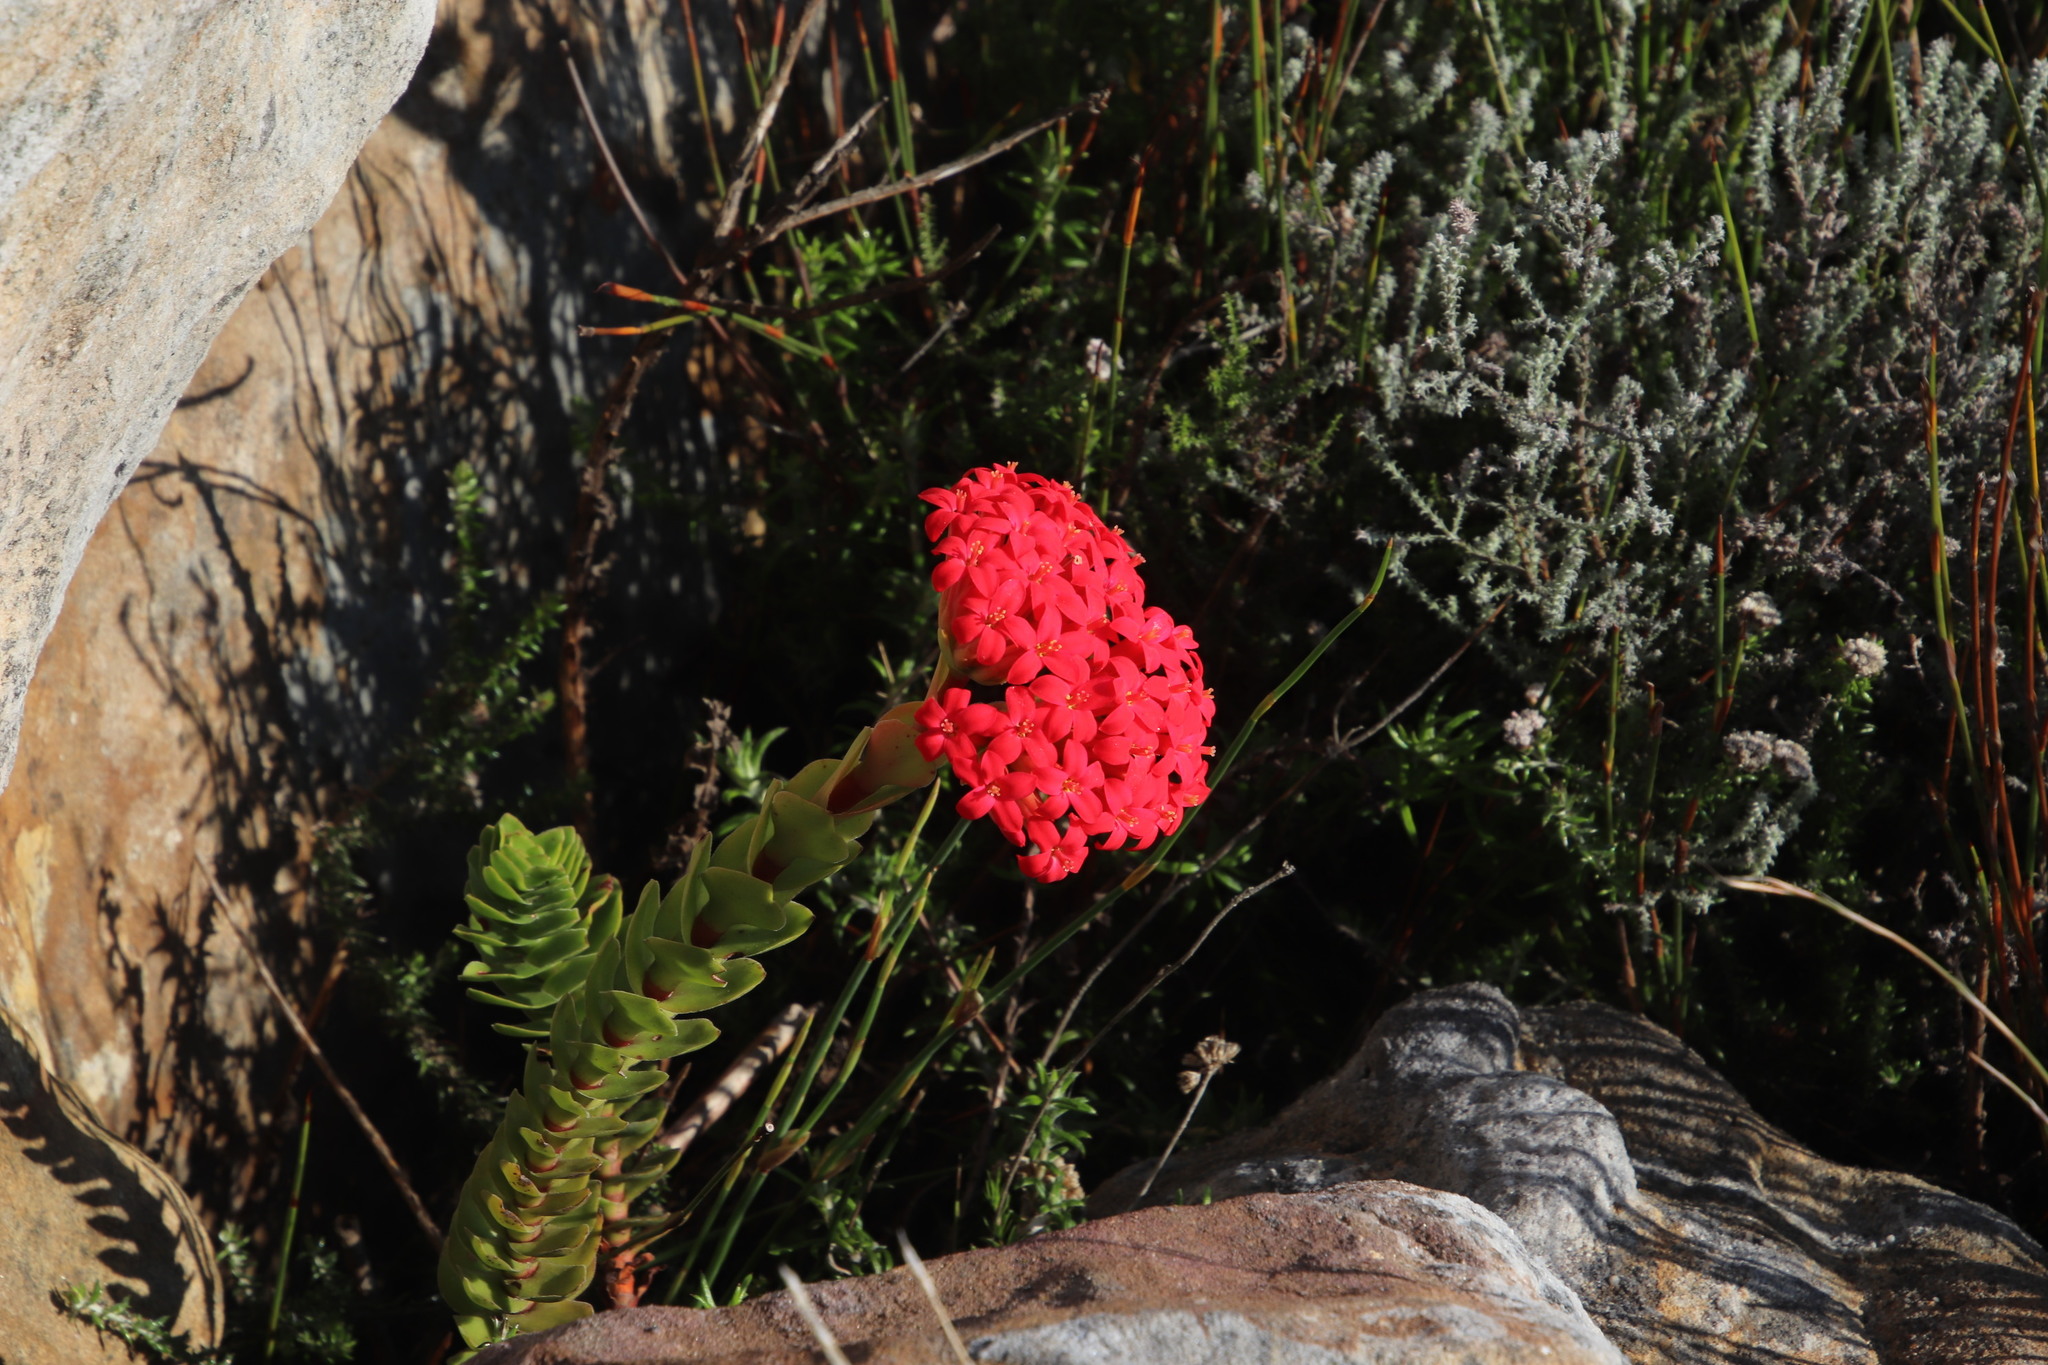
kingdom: Plantae
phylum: Tracheophyta
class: Magnoliopsida
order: Saxifragales
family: Crassulaceae
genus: Crassula
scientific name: Crassula coccinea
